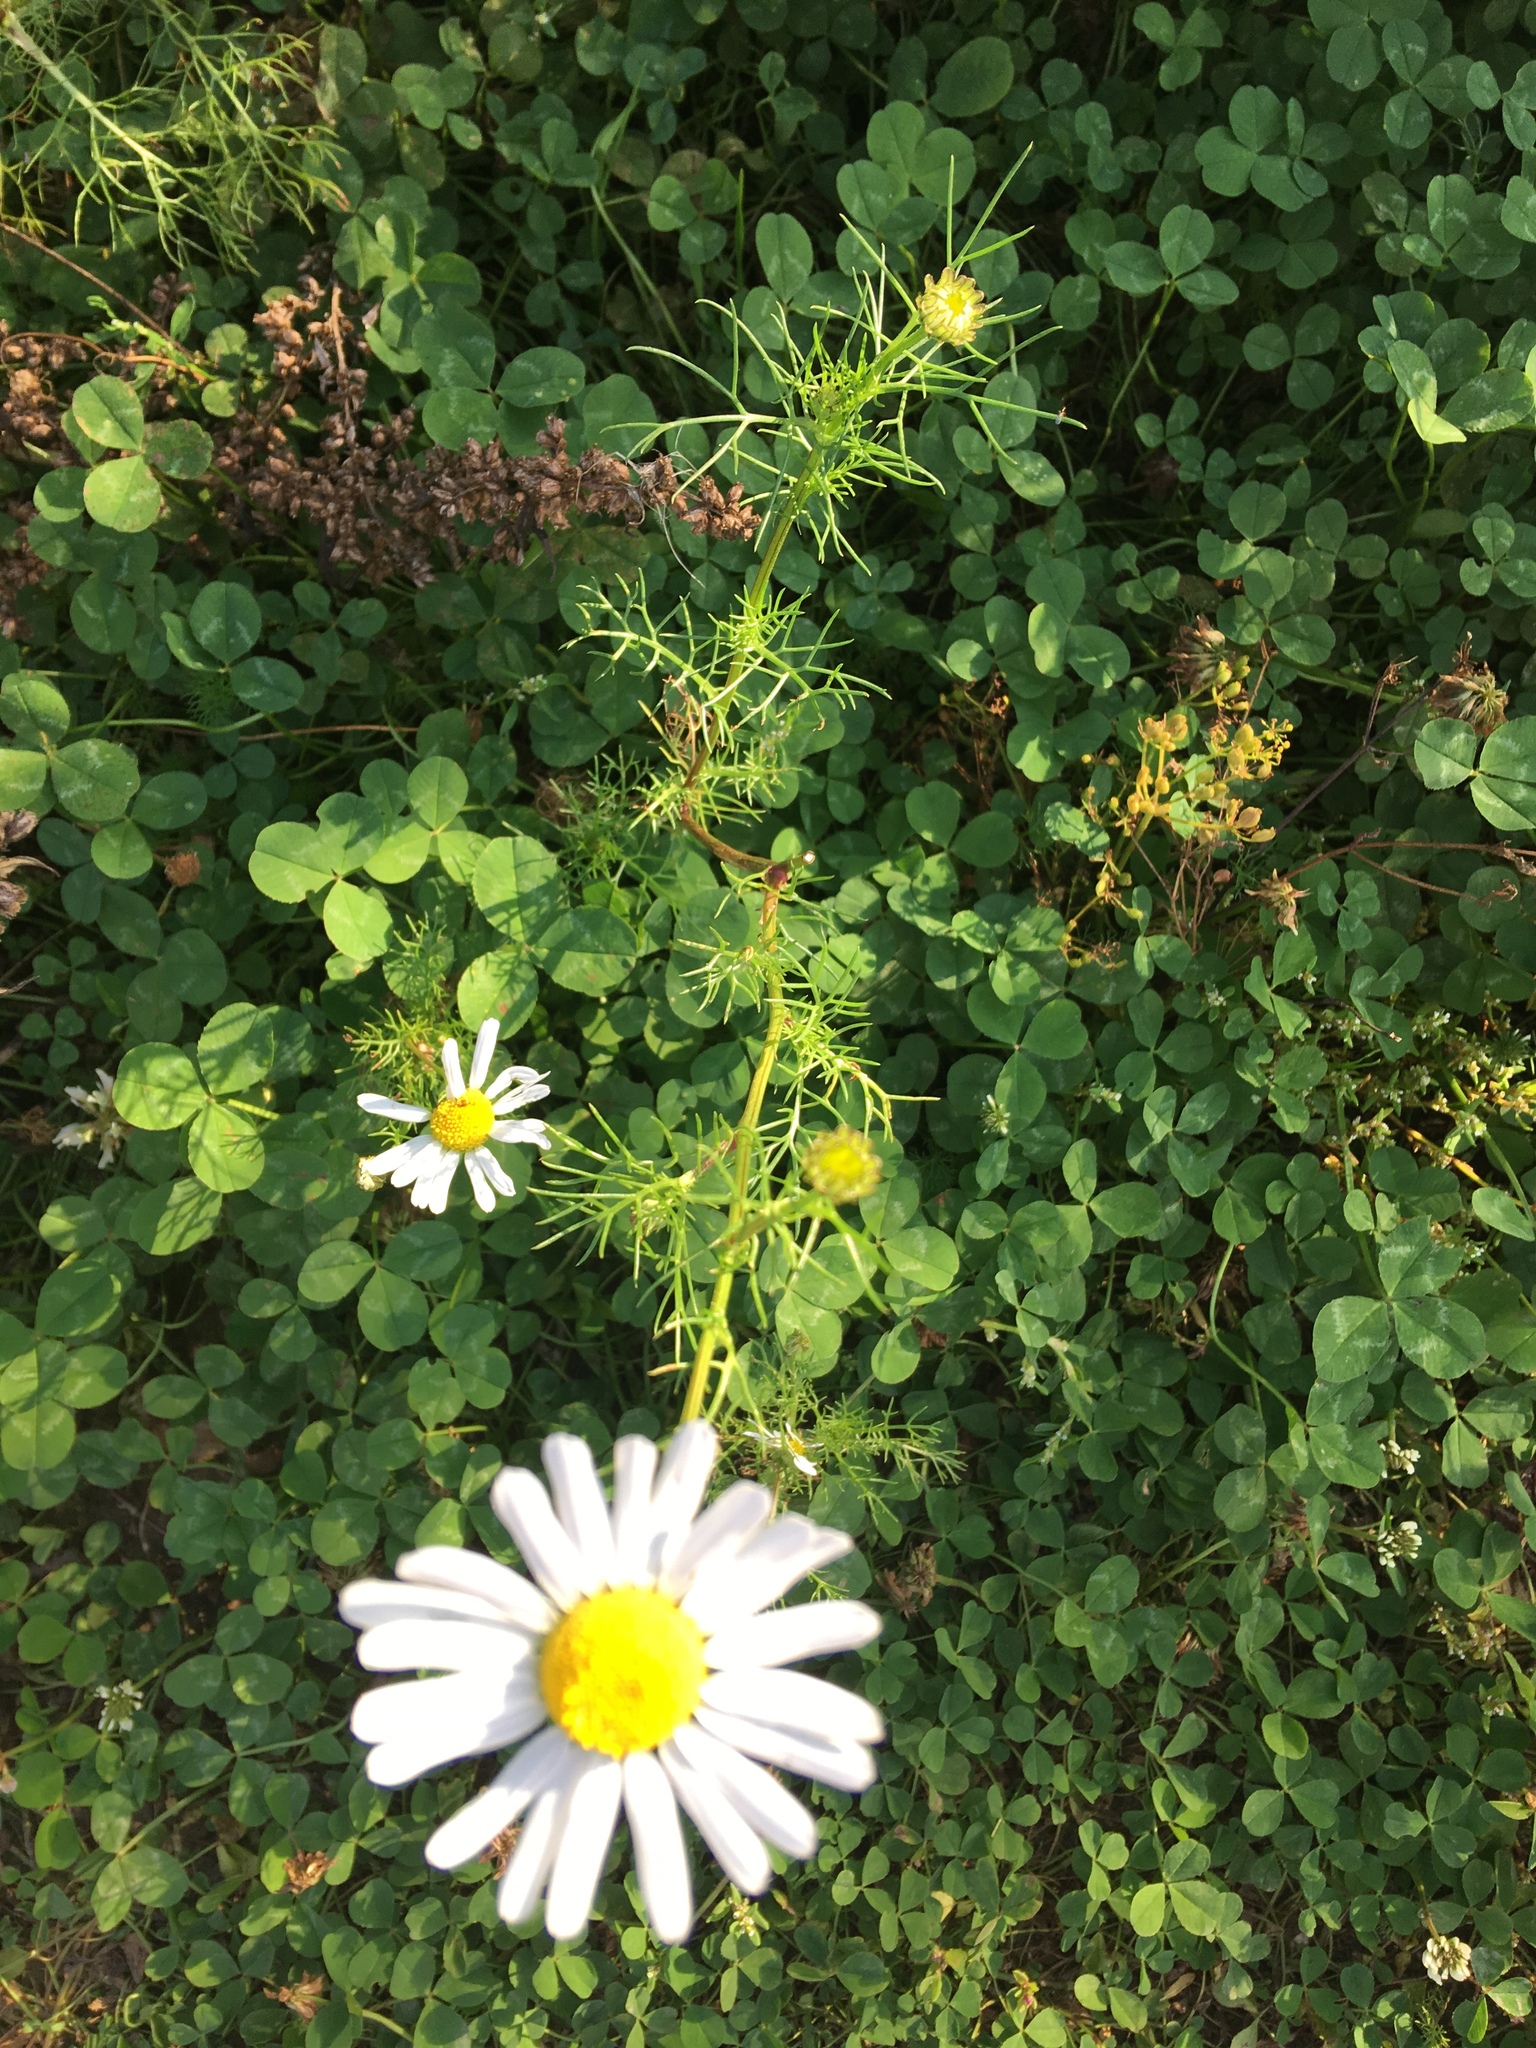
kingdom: Plantae
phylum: Tracheophyta
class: Magnoliopsida
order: Asterales
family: Asteraceae
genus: Tripleurospermum
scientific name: Tripleurospermum inodorum
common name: Scentless mayweed
